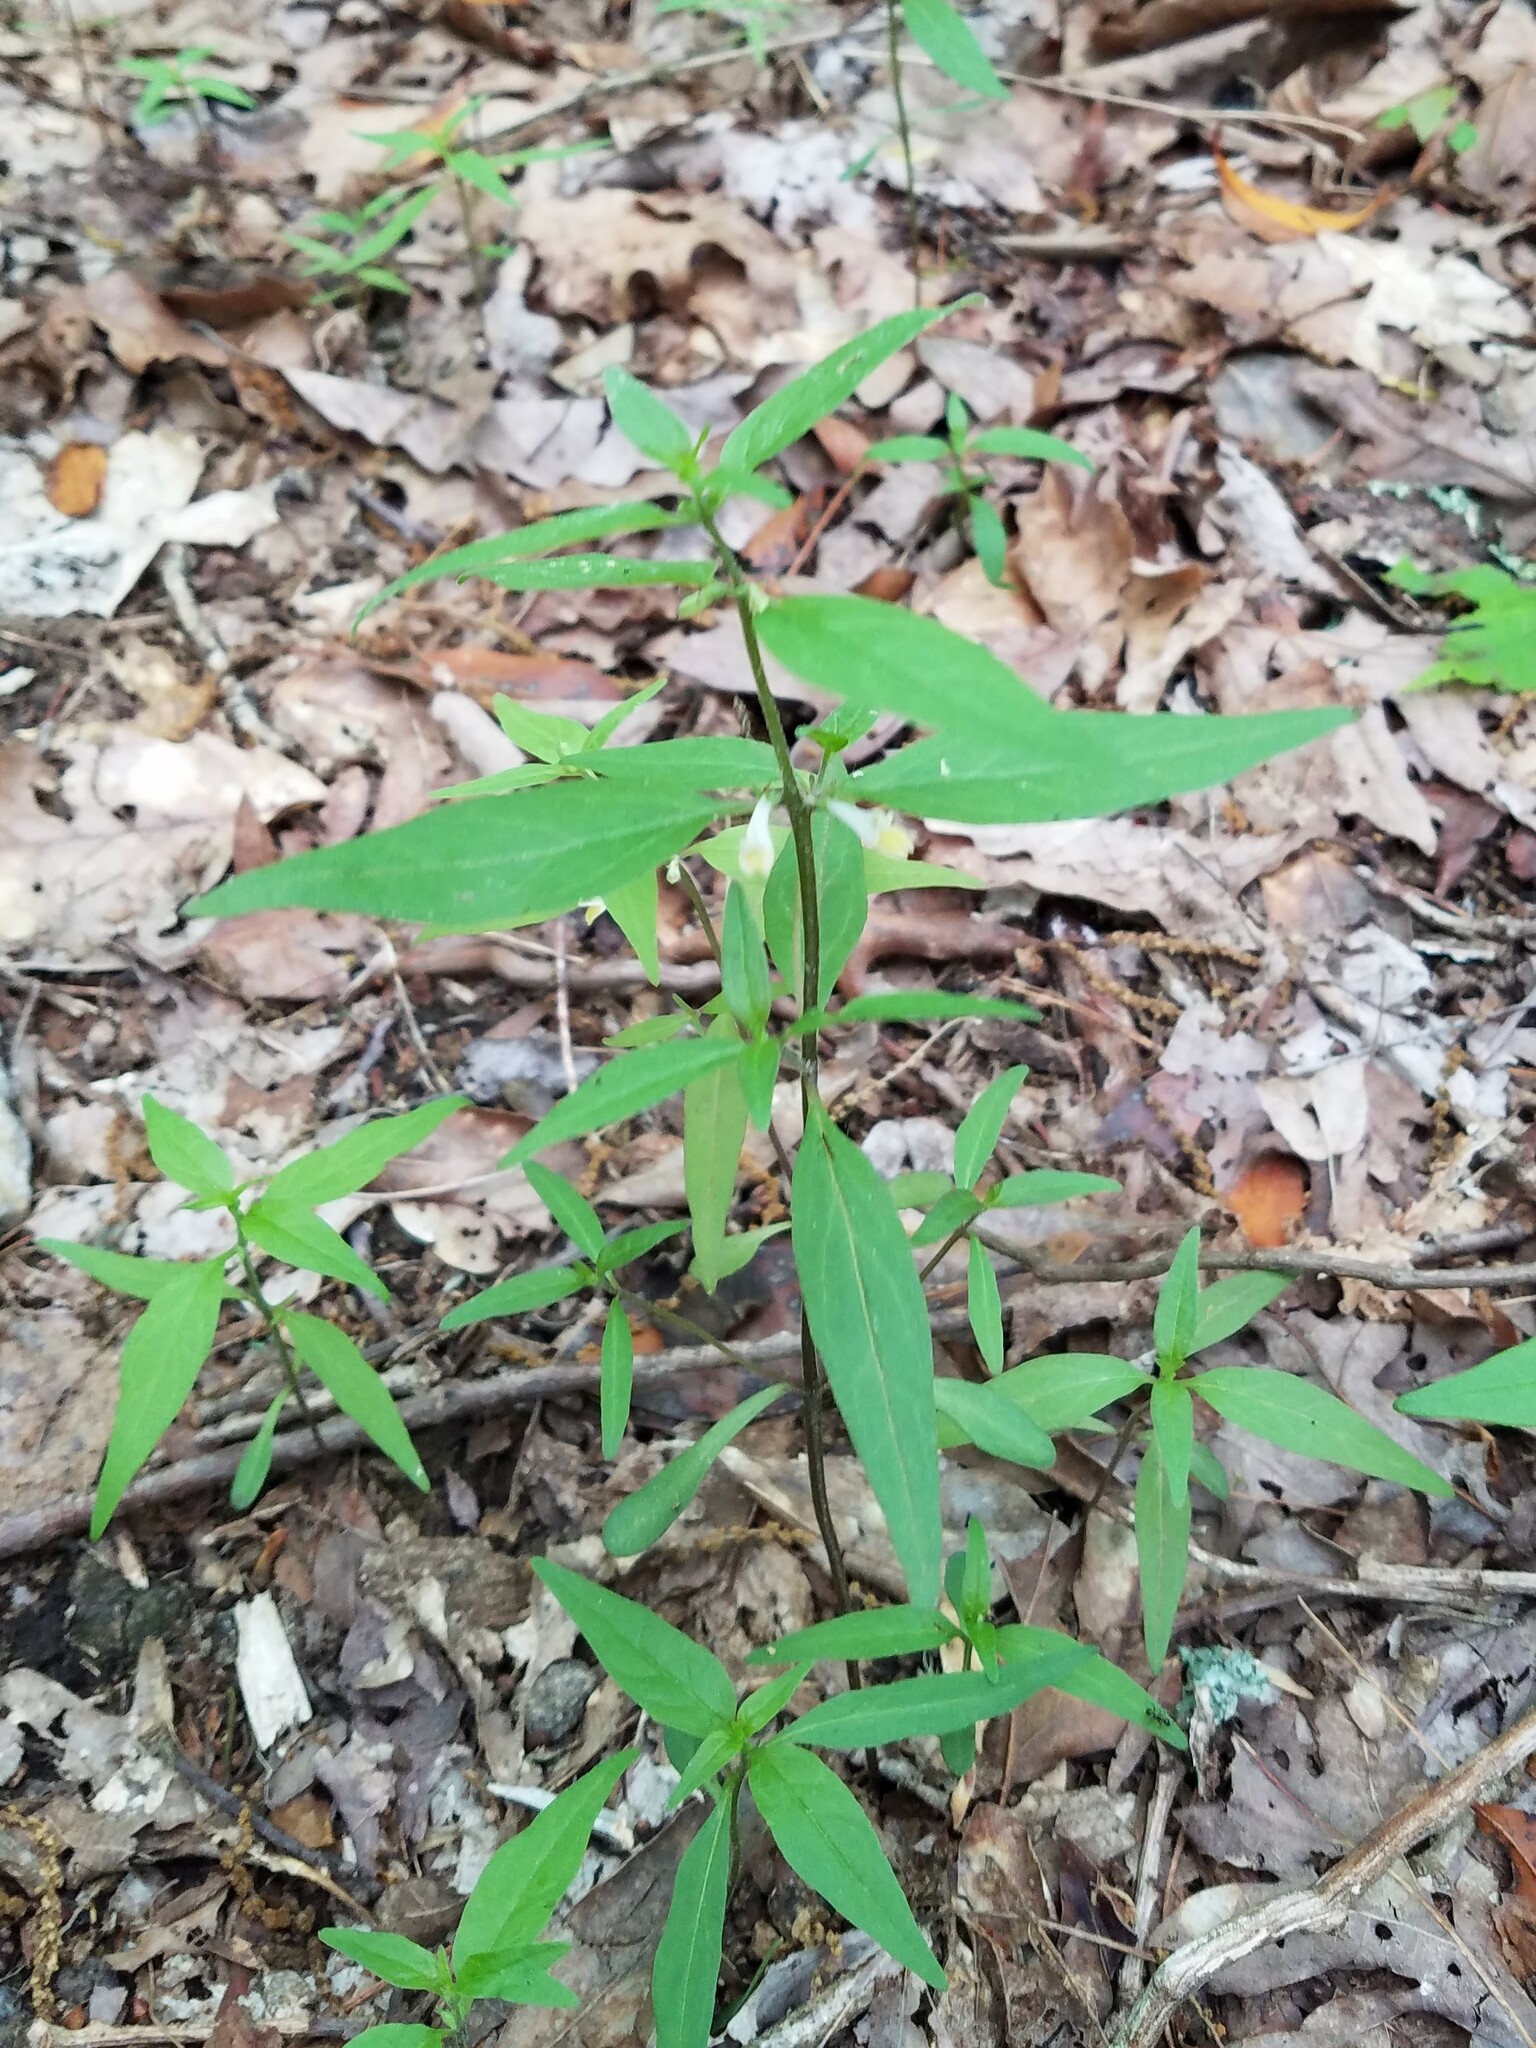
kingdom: Plantae
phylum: Tracheophyta
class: Magnoliopsida
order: Lamiales
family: Orobanchaceae
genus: Melampyrum
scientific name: Melampyrum lineare
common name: American cow-wheat
